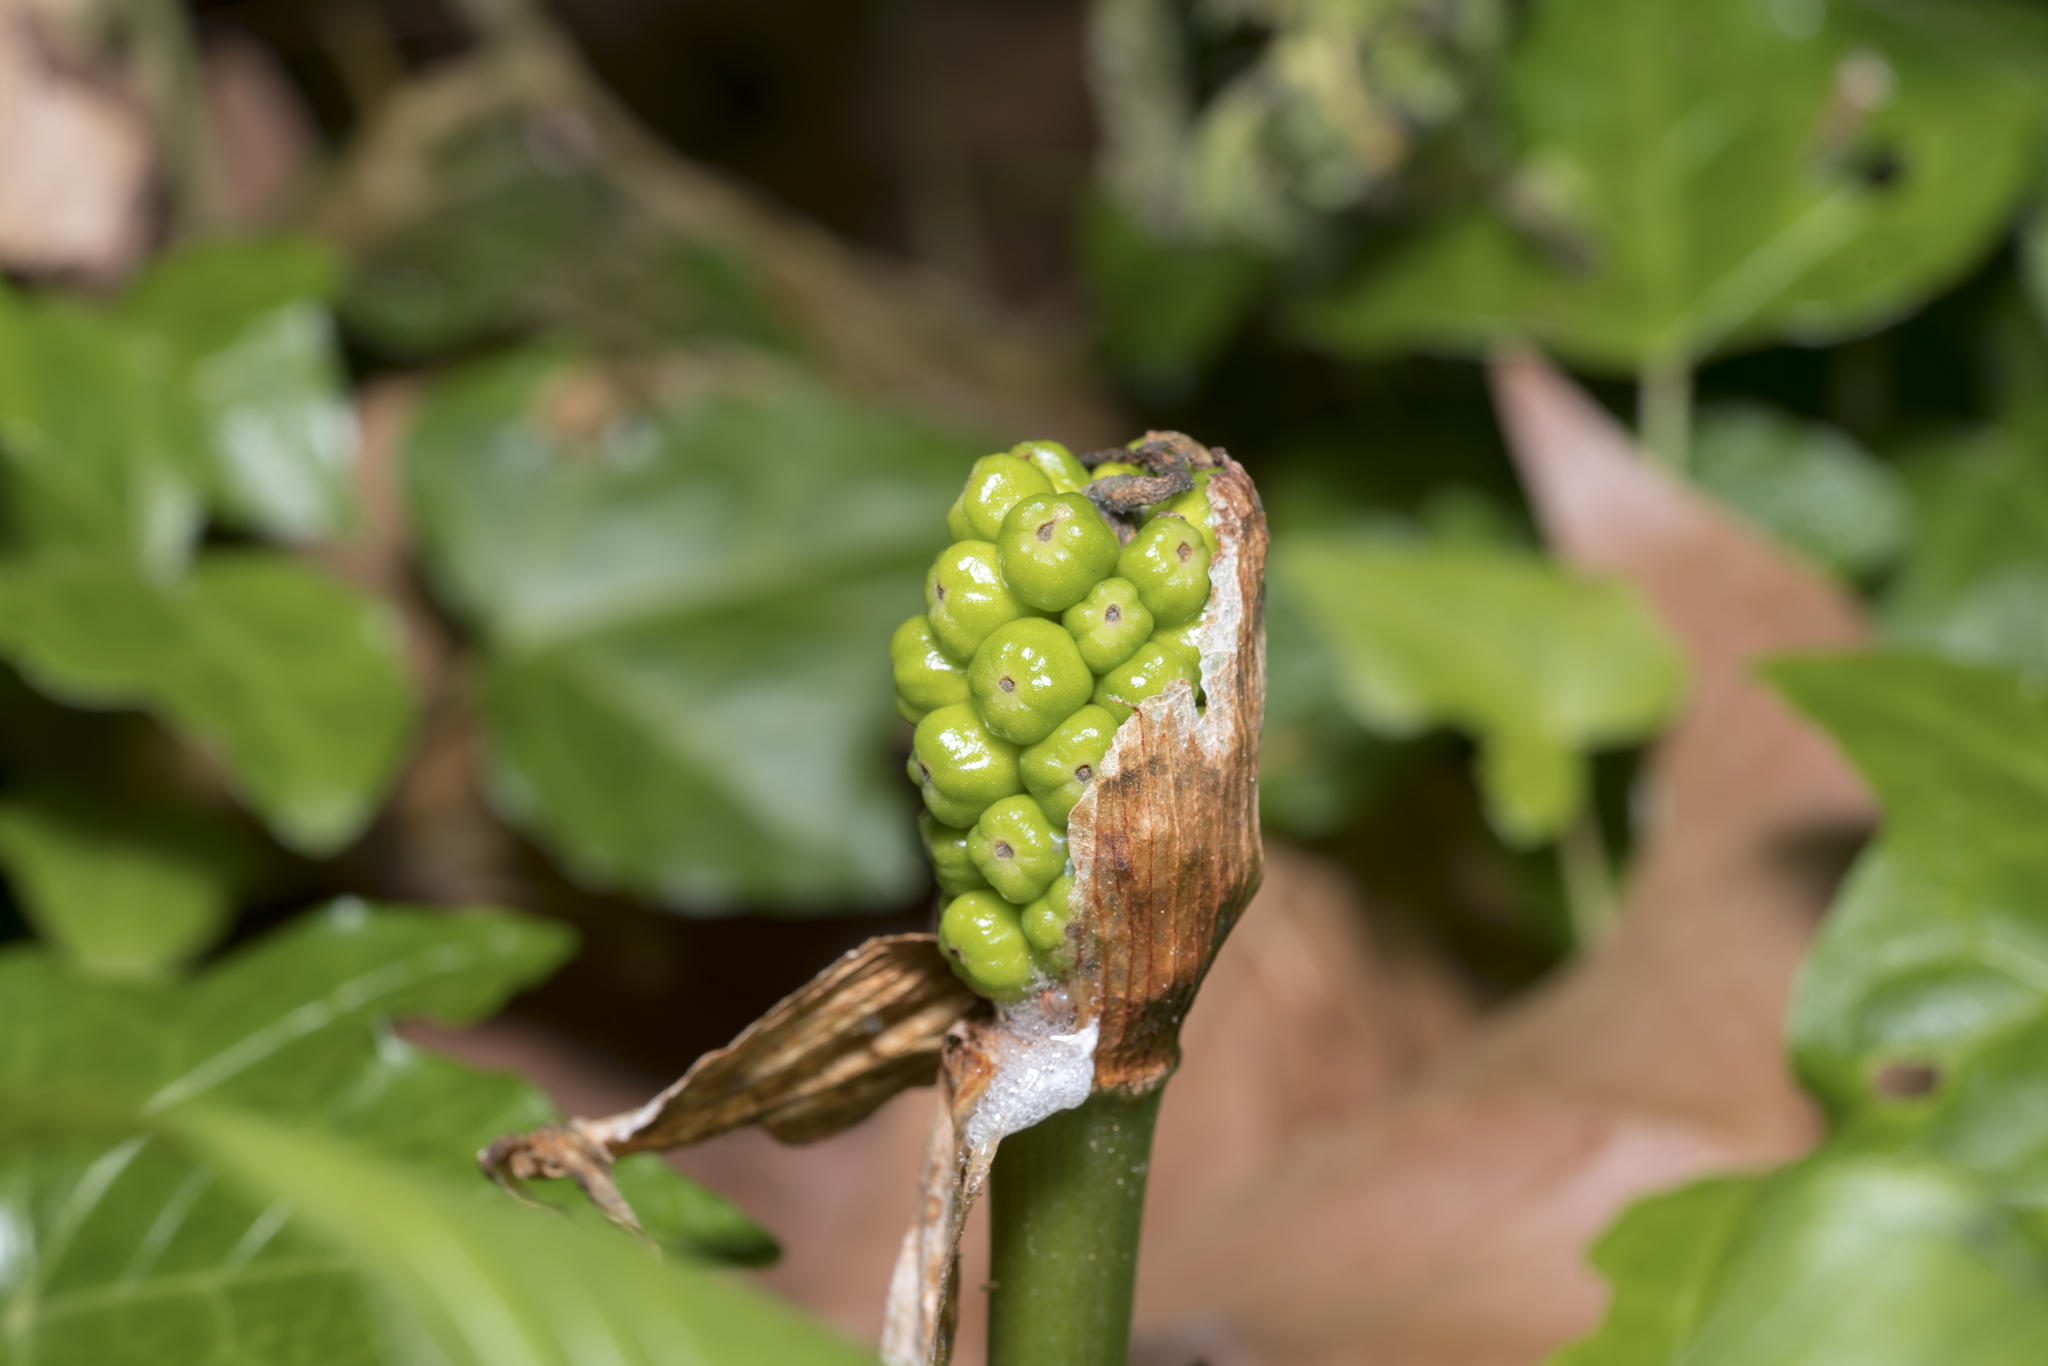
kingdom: Plantae
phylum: Tracheophyta
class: Liliopsida
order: Alismatales
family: Araceae
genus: Arum
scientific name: Arum maculatum
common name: Lords-and-ladies
